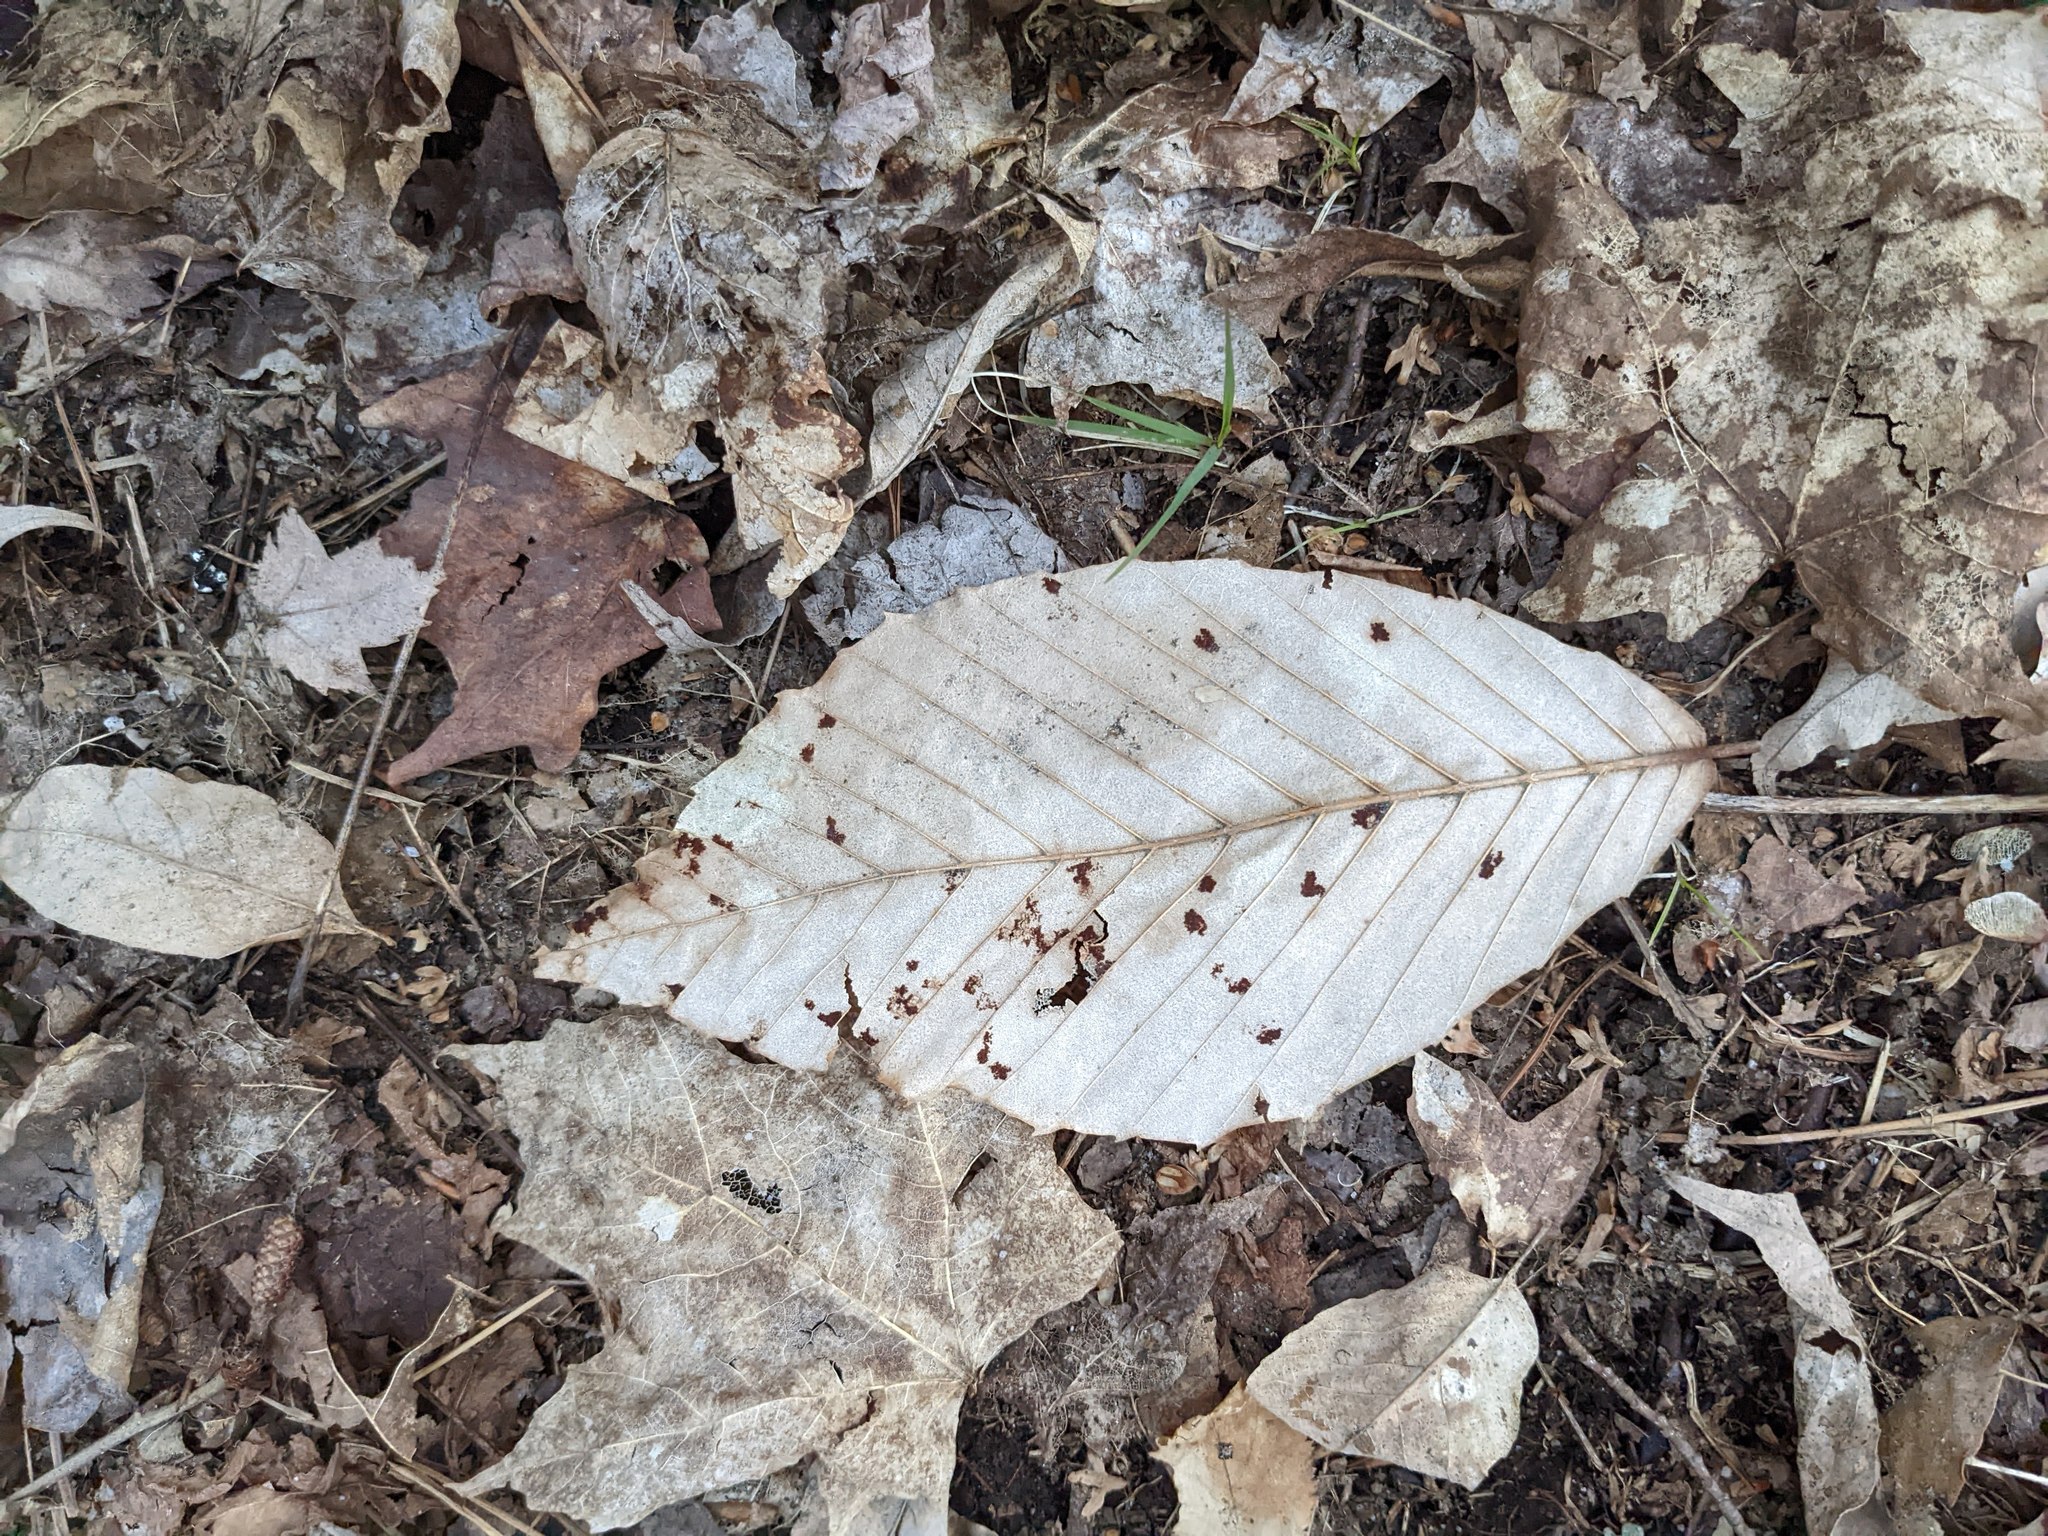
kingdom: Plantae
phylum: Tracheophyta
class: Magnoliopsida
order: Fagales
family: Fagaceae
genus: Fagus
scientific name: Fagus grandifolia
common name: American beech
